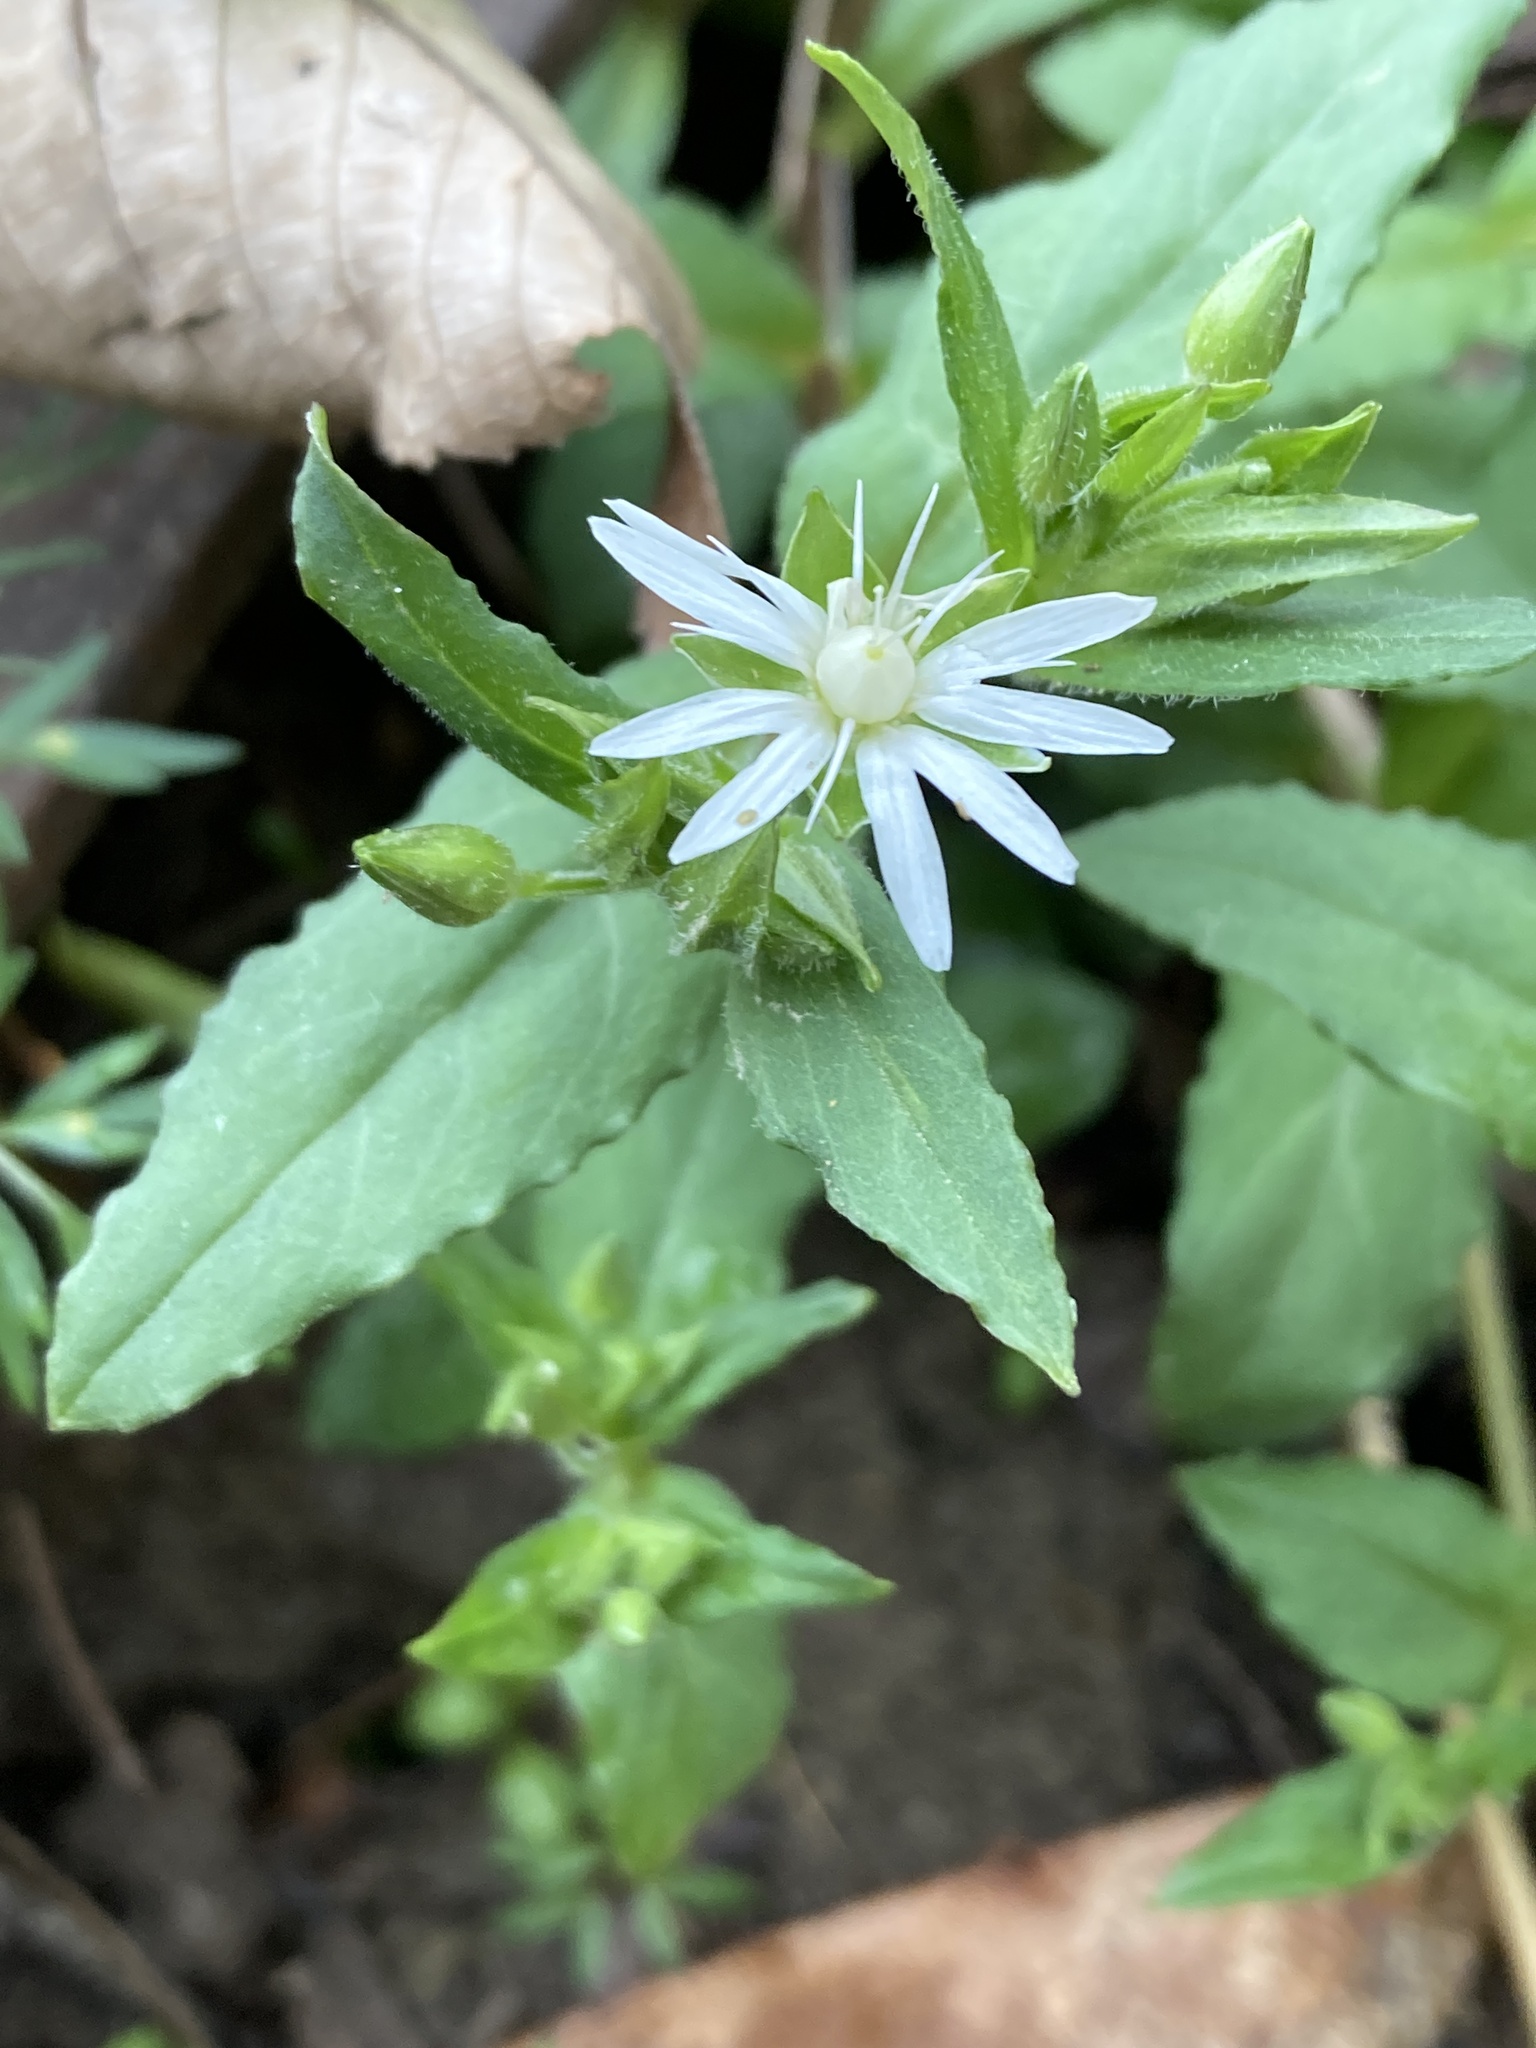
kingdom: Plantae
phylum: Tracheophyta
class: Magnoliopsida
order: Caryophyllales
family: Caryophyllaceae
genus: Stellaria
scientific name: Stellaria pubera
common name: Star chickweed
